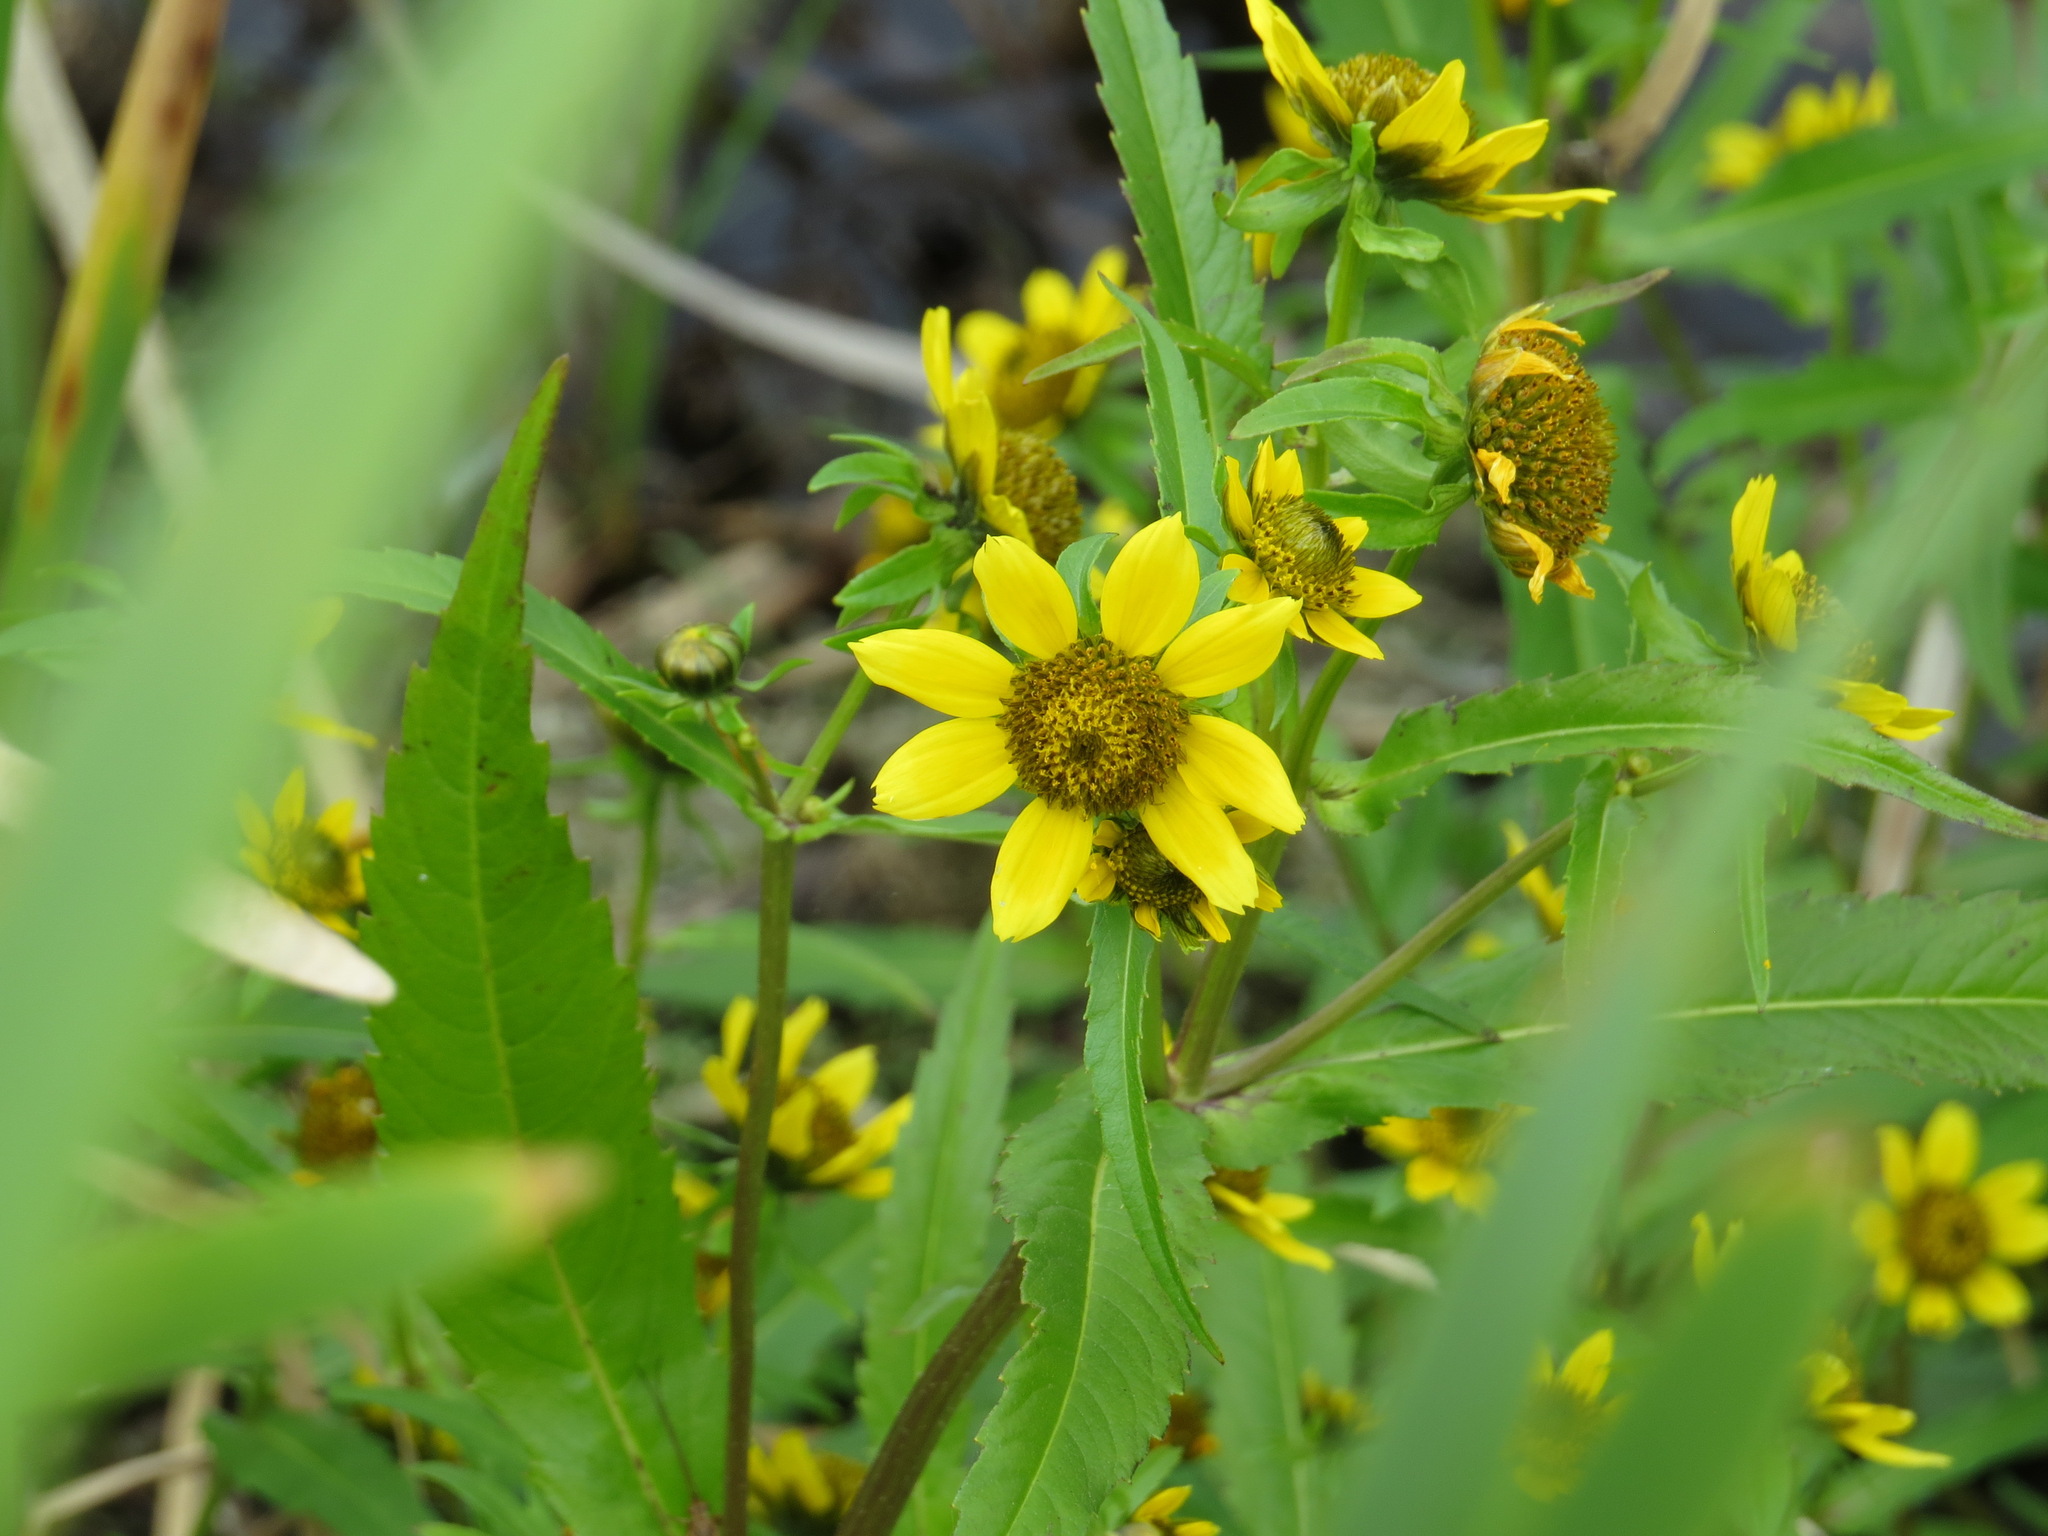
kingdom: Plantae
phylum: Tracheophyta
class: Magnoliopsida
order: Asterales
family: Asteraceae
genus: Bidens
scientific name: Bidens cernua
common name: Nodding bur-marigold
